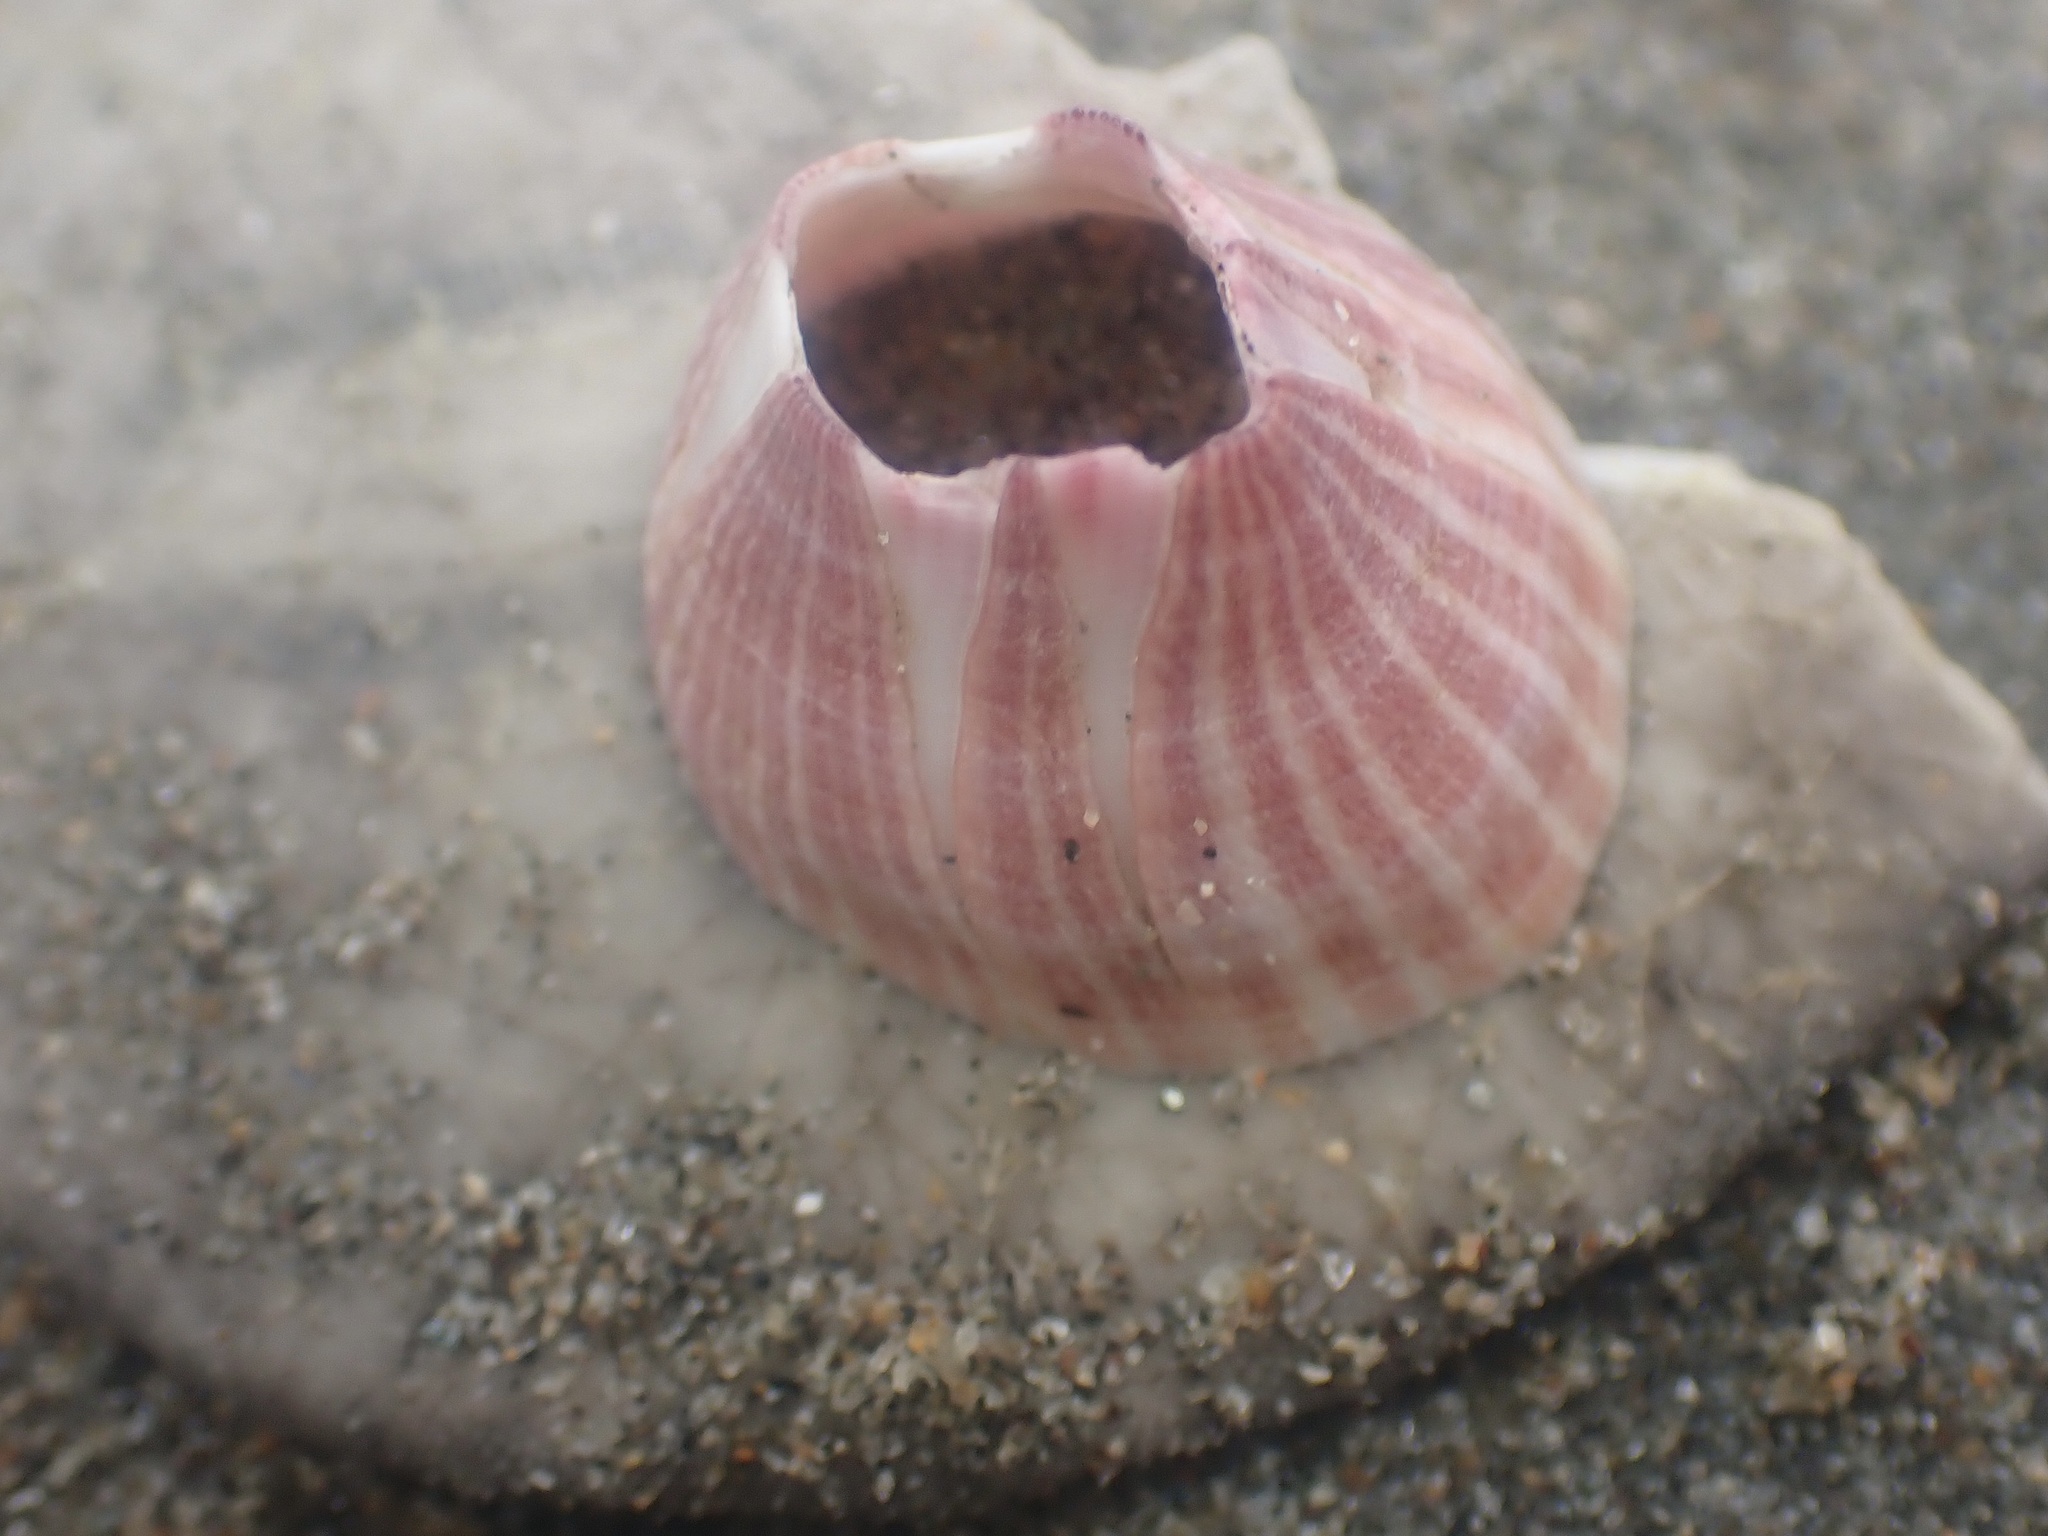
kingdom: Animalia
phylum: Arthropoda
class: Maxillopoda
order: Sessilia
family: Balanidae
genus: Paraconcavus
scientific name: Paraconcavus pacificus
